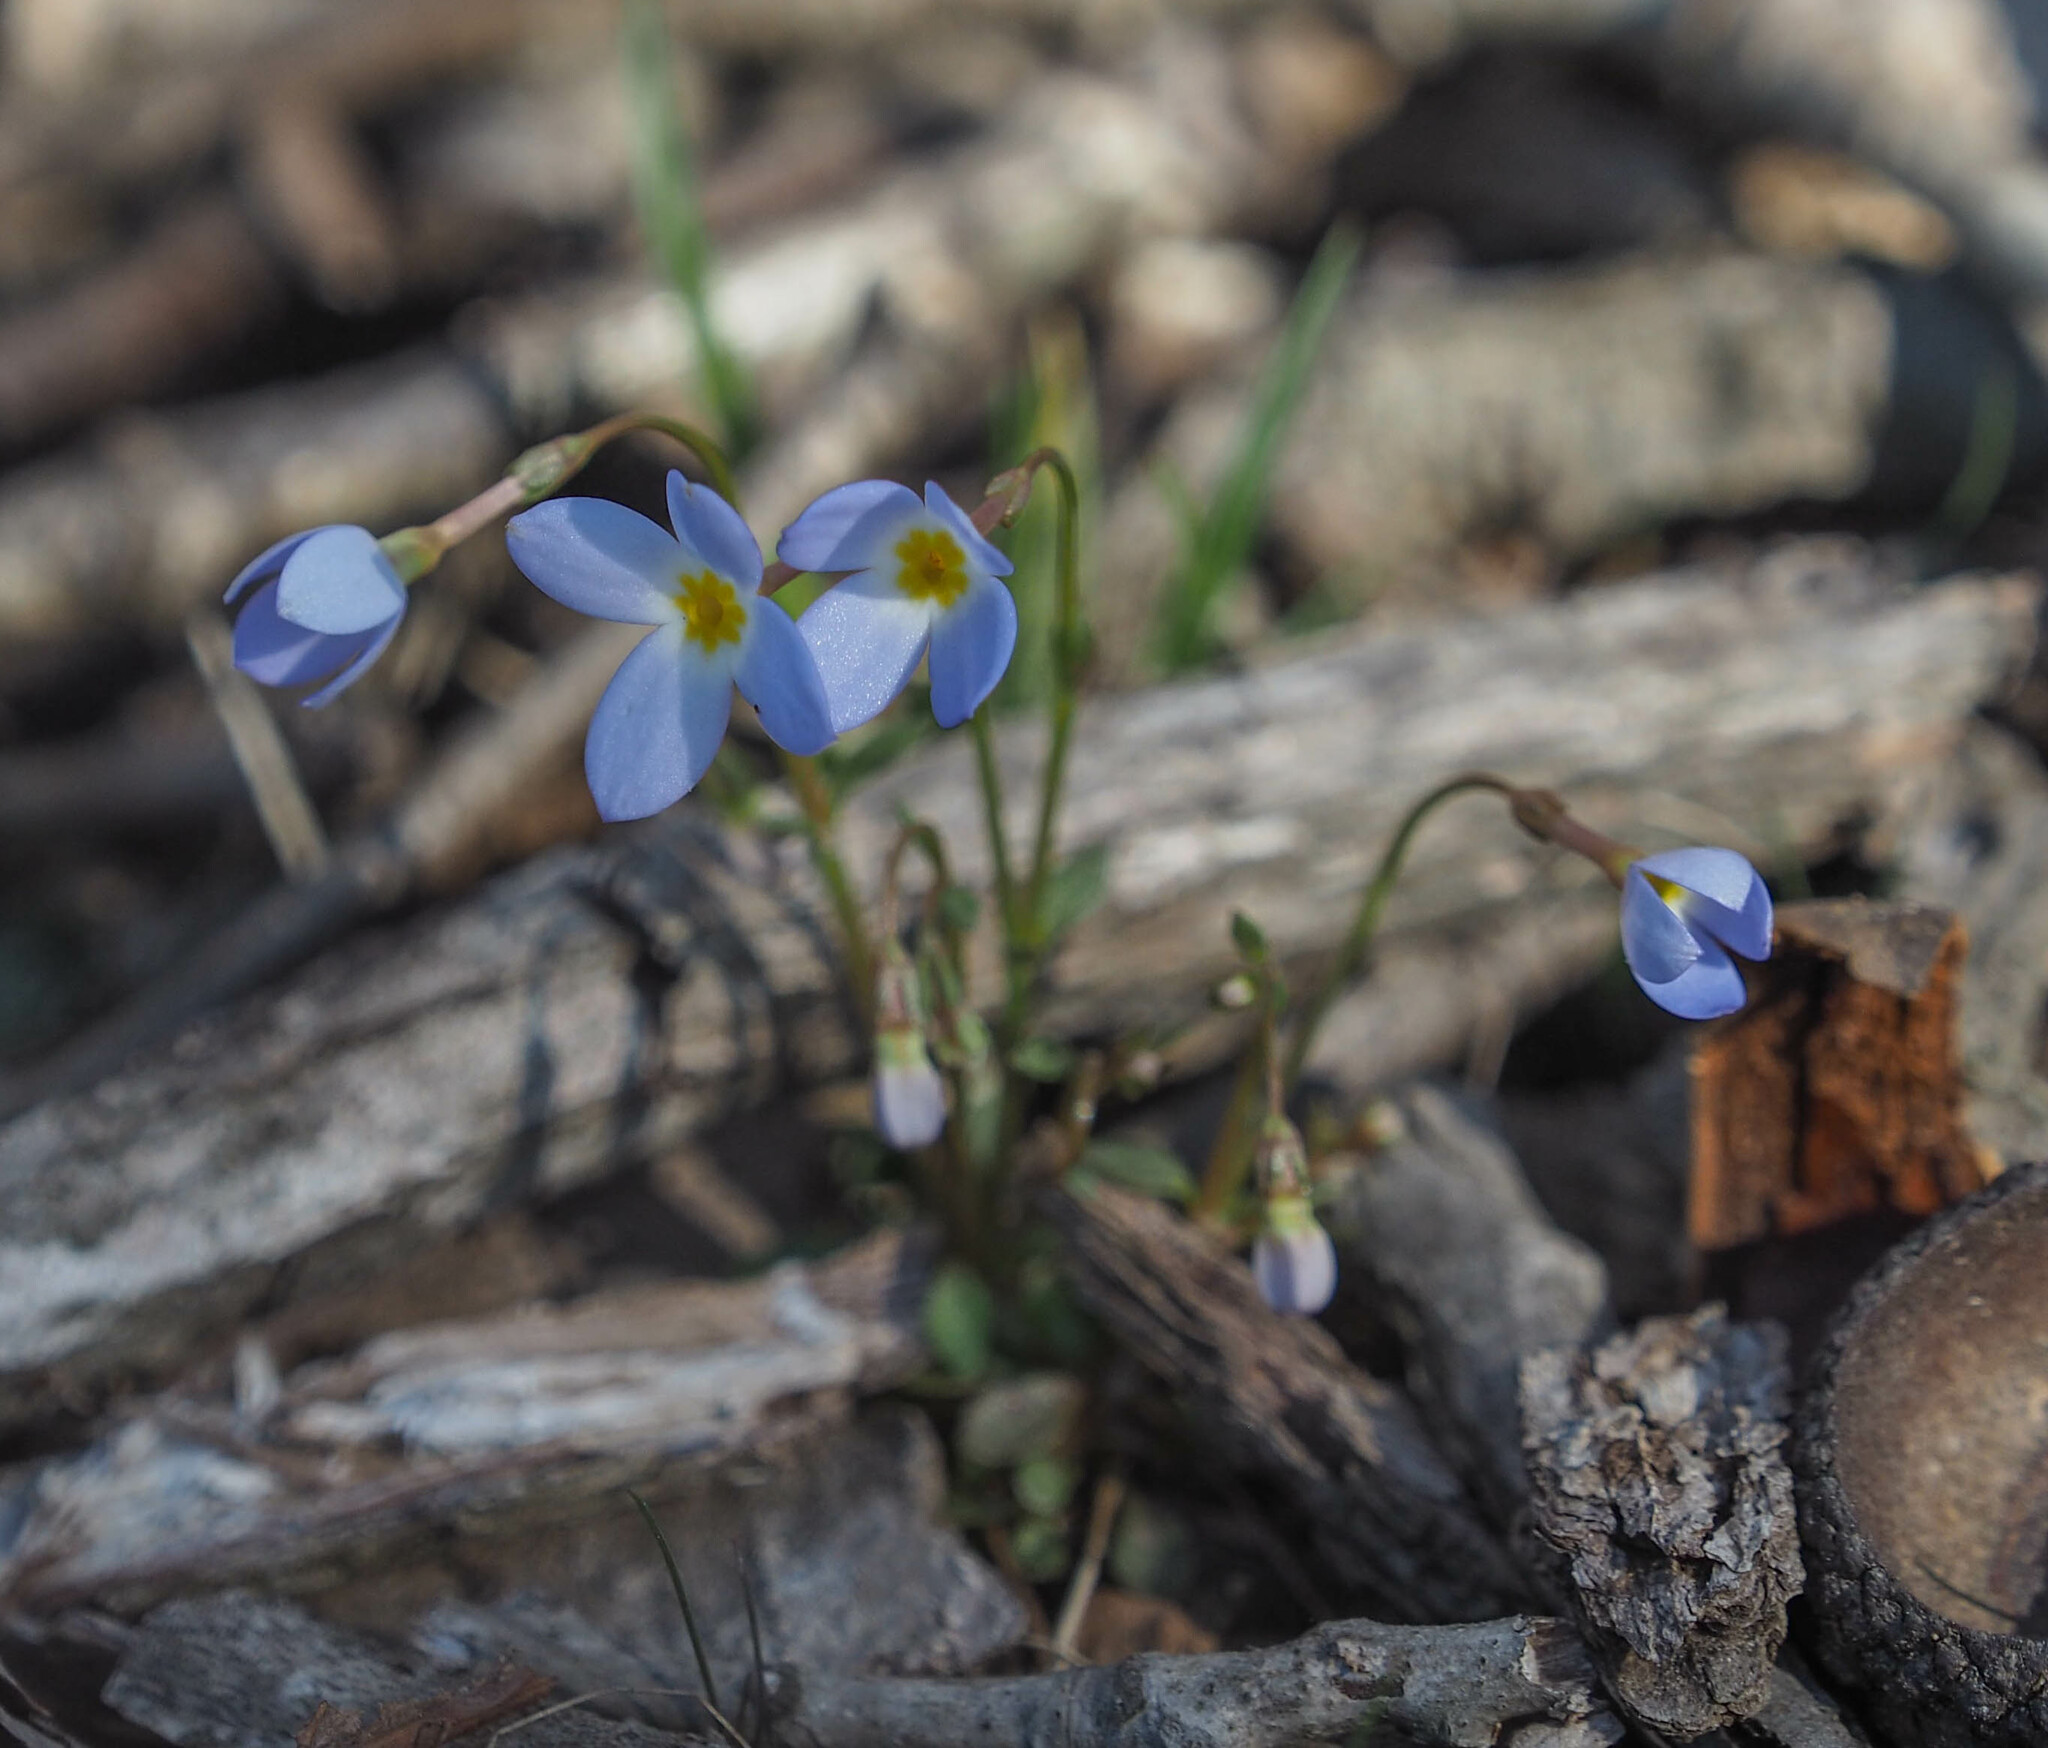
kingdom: Plantae
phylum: Tracheophyta
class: Magnoliopsida
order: Gentianales
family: Rubiaceae
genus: Houstonia
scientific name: Houstonia caerulea
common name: Bluets
